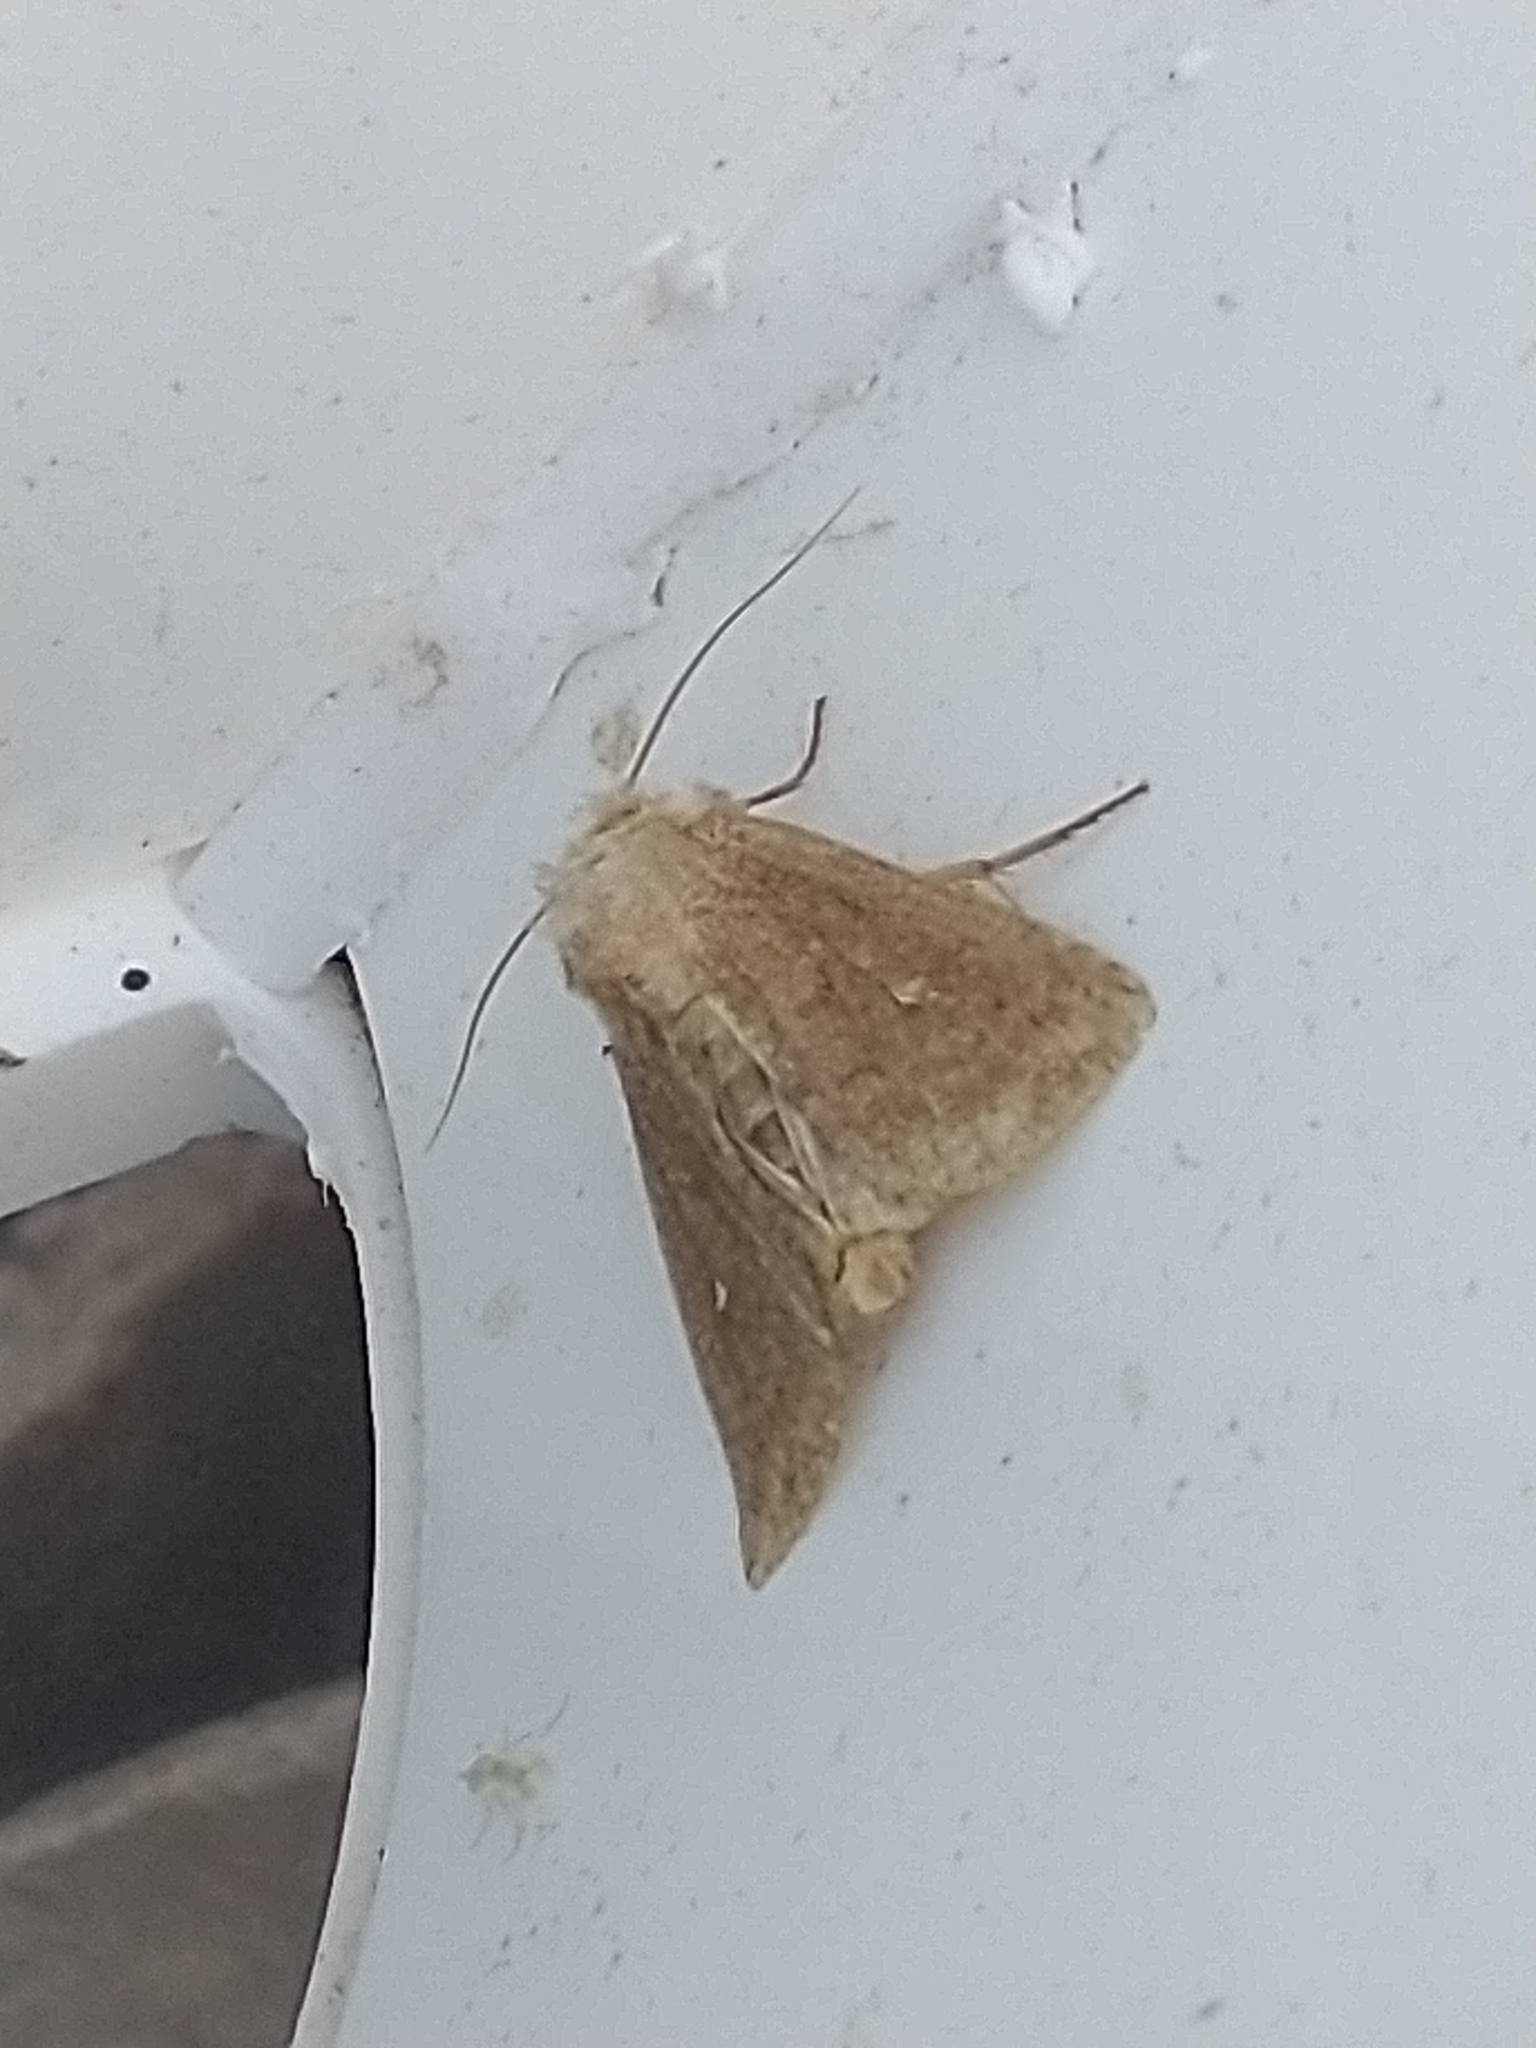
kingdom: Animalia
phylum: Arthropoda
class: Insecta
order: Lepidoptera
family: Noctuidae
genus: Mythimna
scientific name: Mythimna albipuncta
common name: White-point
